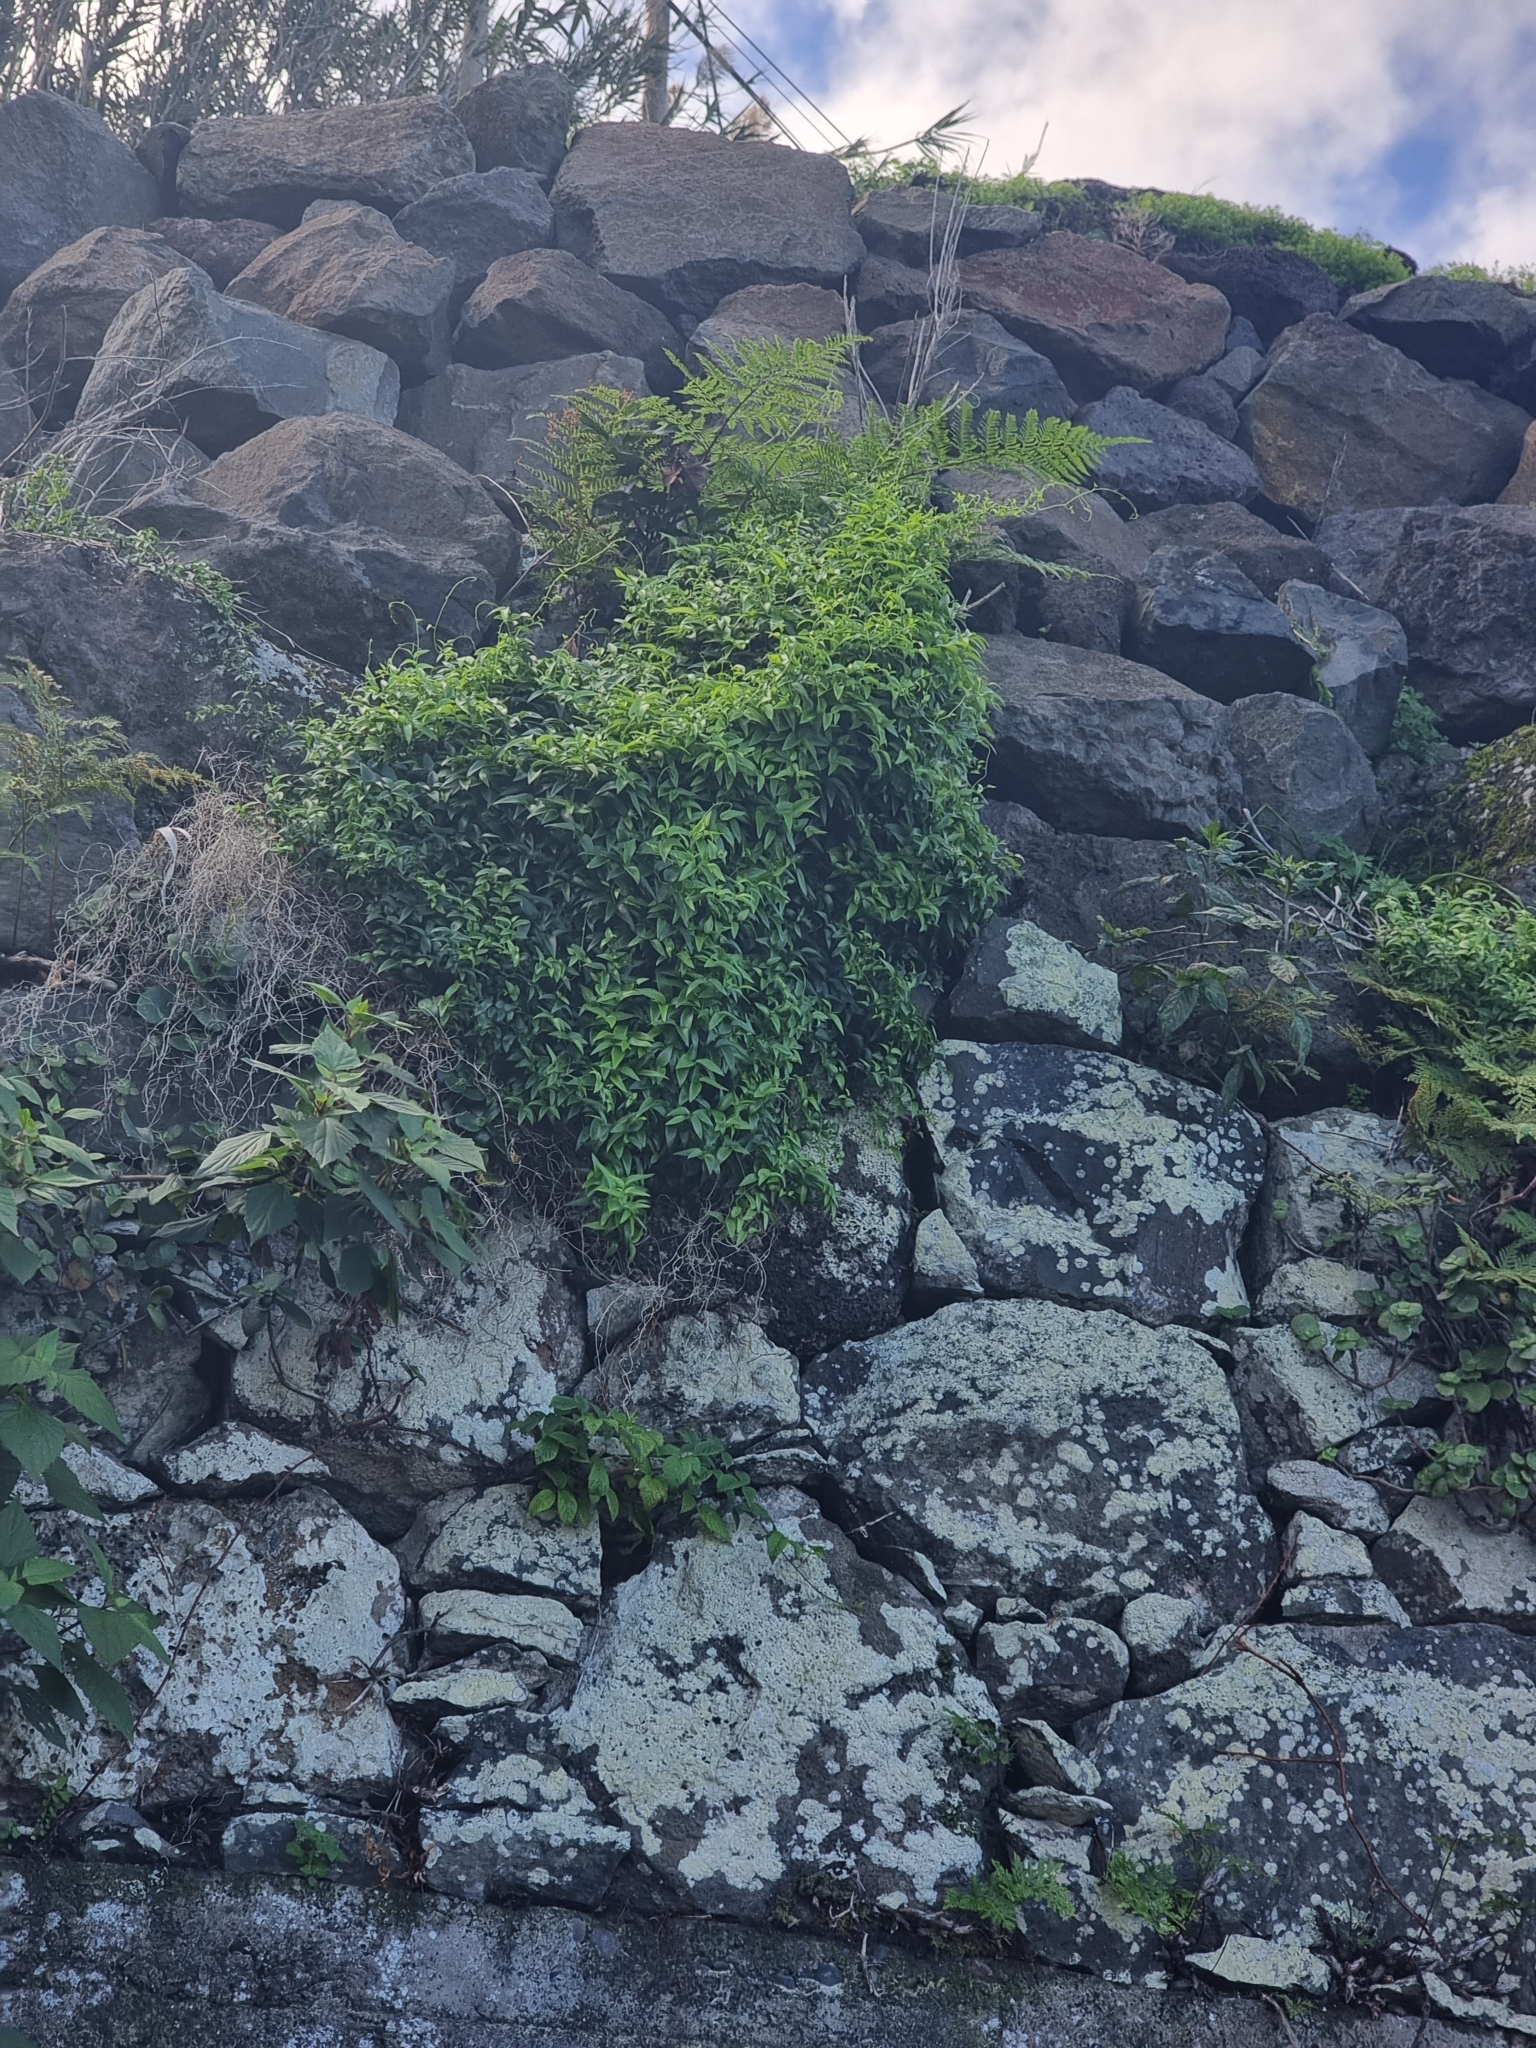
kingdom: Plantae
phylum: Tracheophyta
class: Liliopsida
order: Asparagales
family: Asparagaceae
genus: Asparagus
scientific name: Asparagus asparagoides
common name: African asparagus fern
